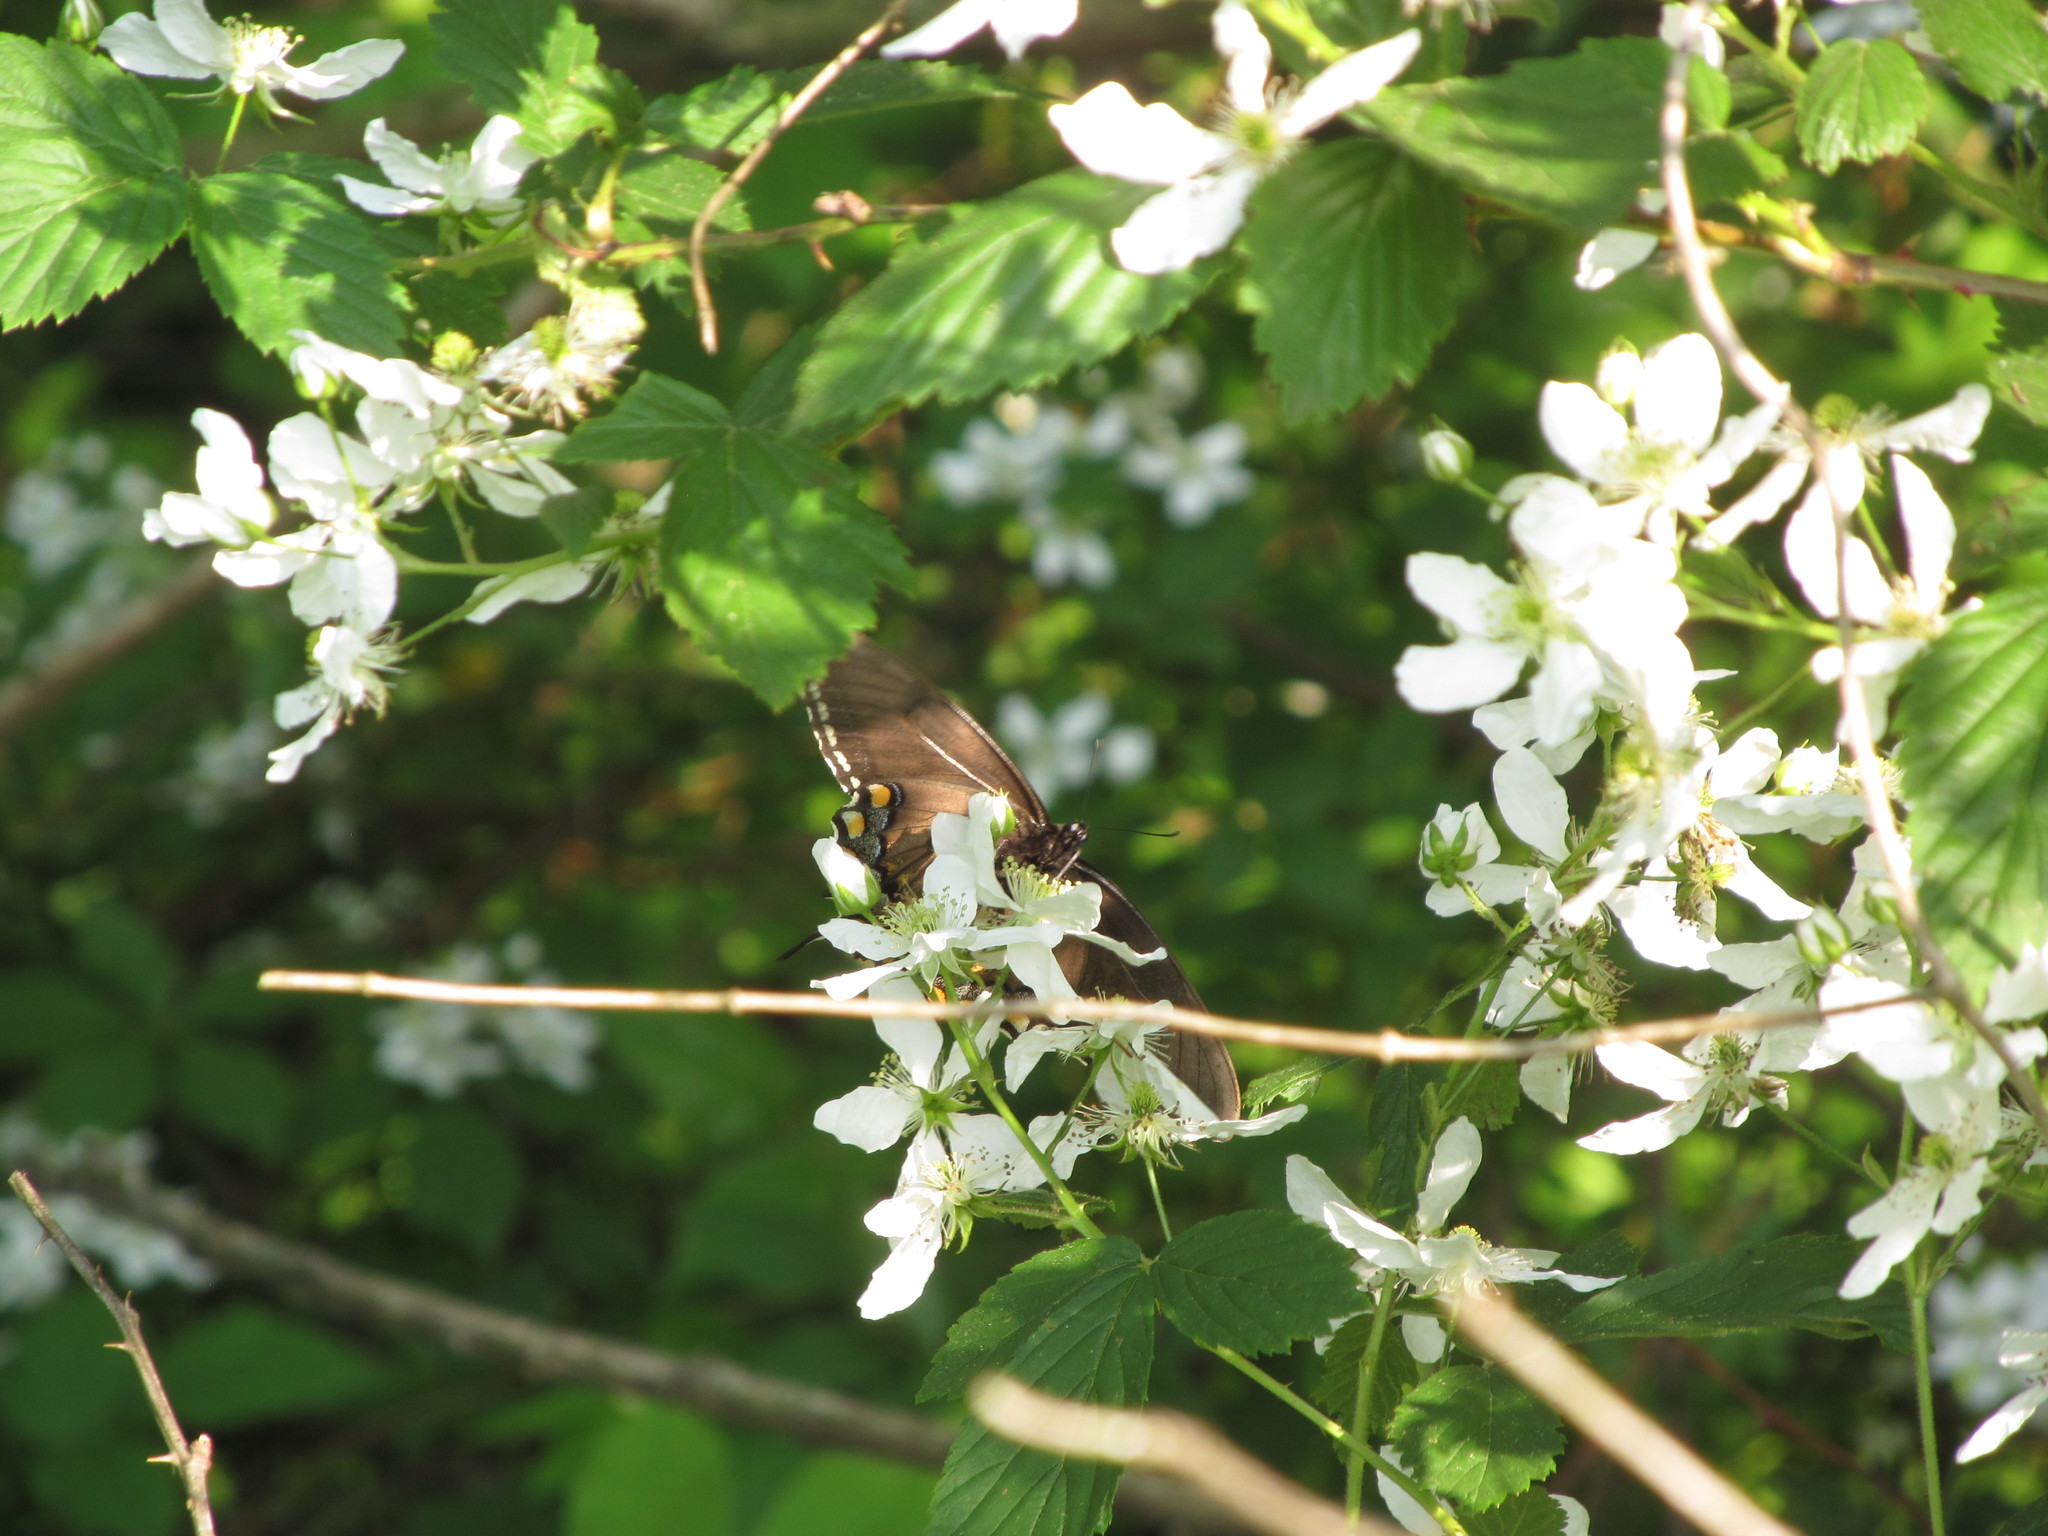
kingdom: Animalia
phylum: Arthropoda
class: Insecta
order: Lepidoptera
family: Papilionidae
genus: Papilio
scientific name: Papilio glaucus
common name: Tiger swallowtail
